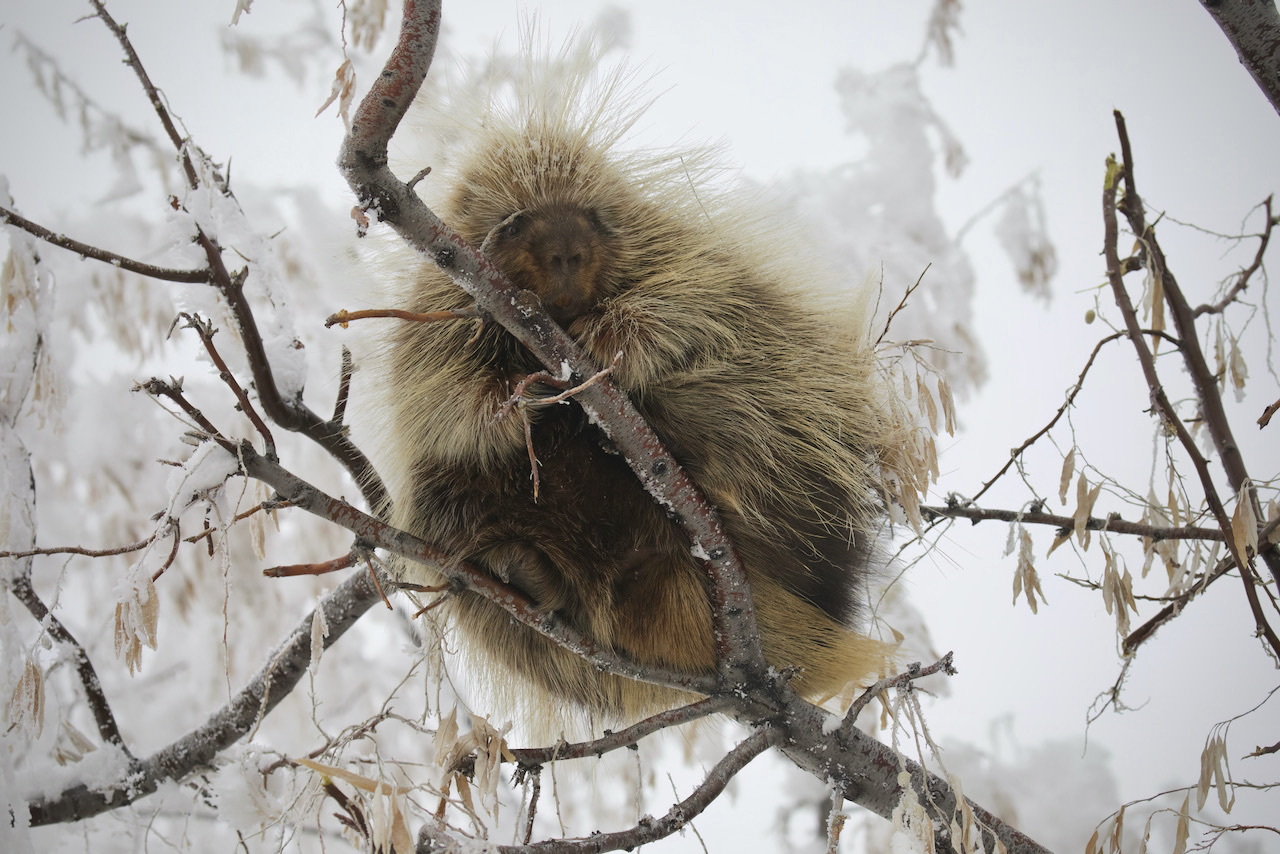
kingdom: Animalia
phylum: Chordata
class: Mammalia
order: Rodentia
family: Erethizontidae
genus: Erethizon
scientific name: Erethizon dorsatus
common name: North american porcupine
